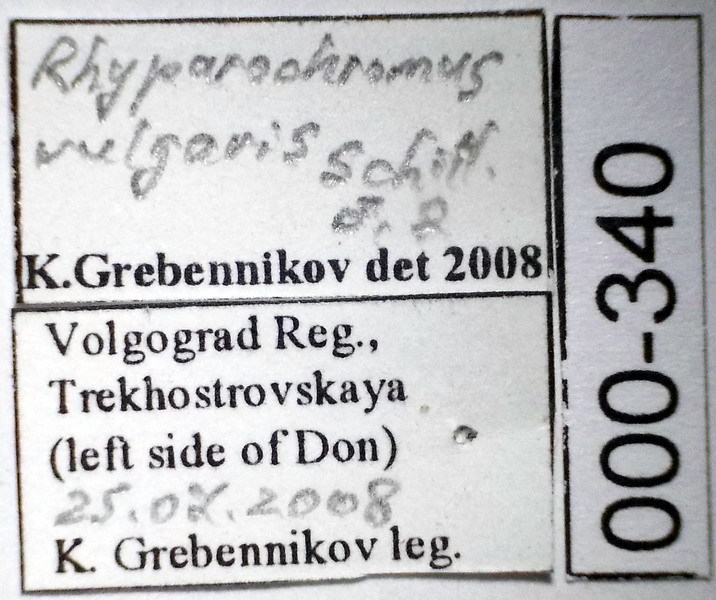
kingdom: Animalia
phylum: Arthropoda
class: Insecta
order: Hemiptera
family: Rhyparochromidae
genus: Rhyparochromus
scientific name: Rhyparochromus vulgaris
